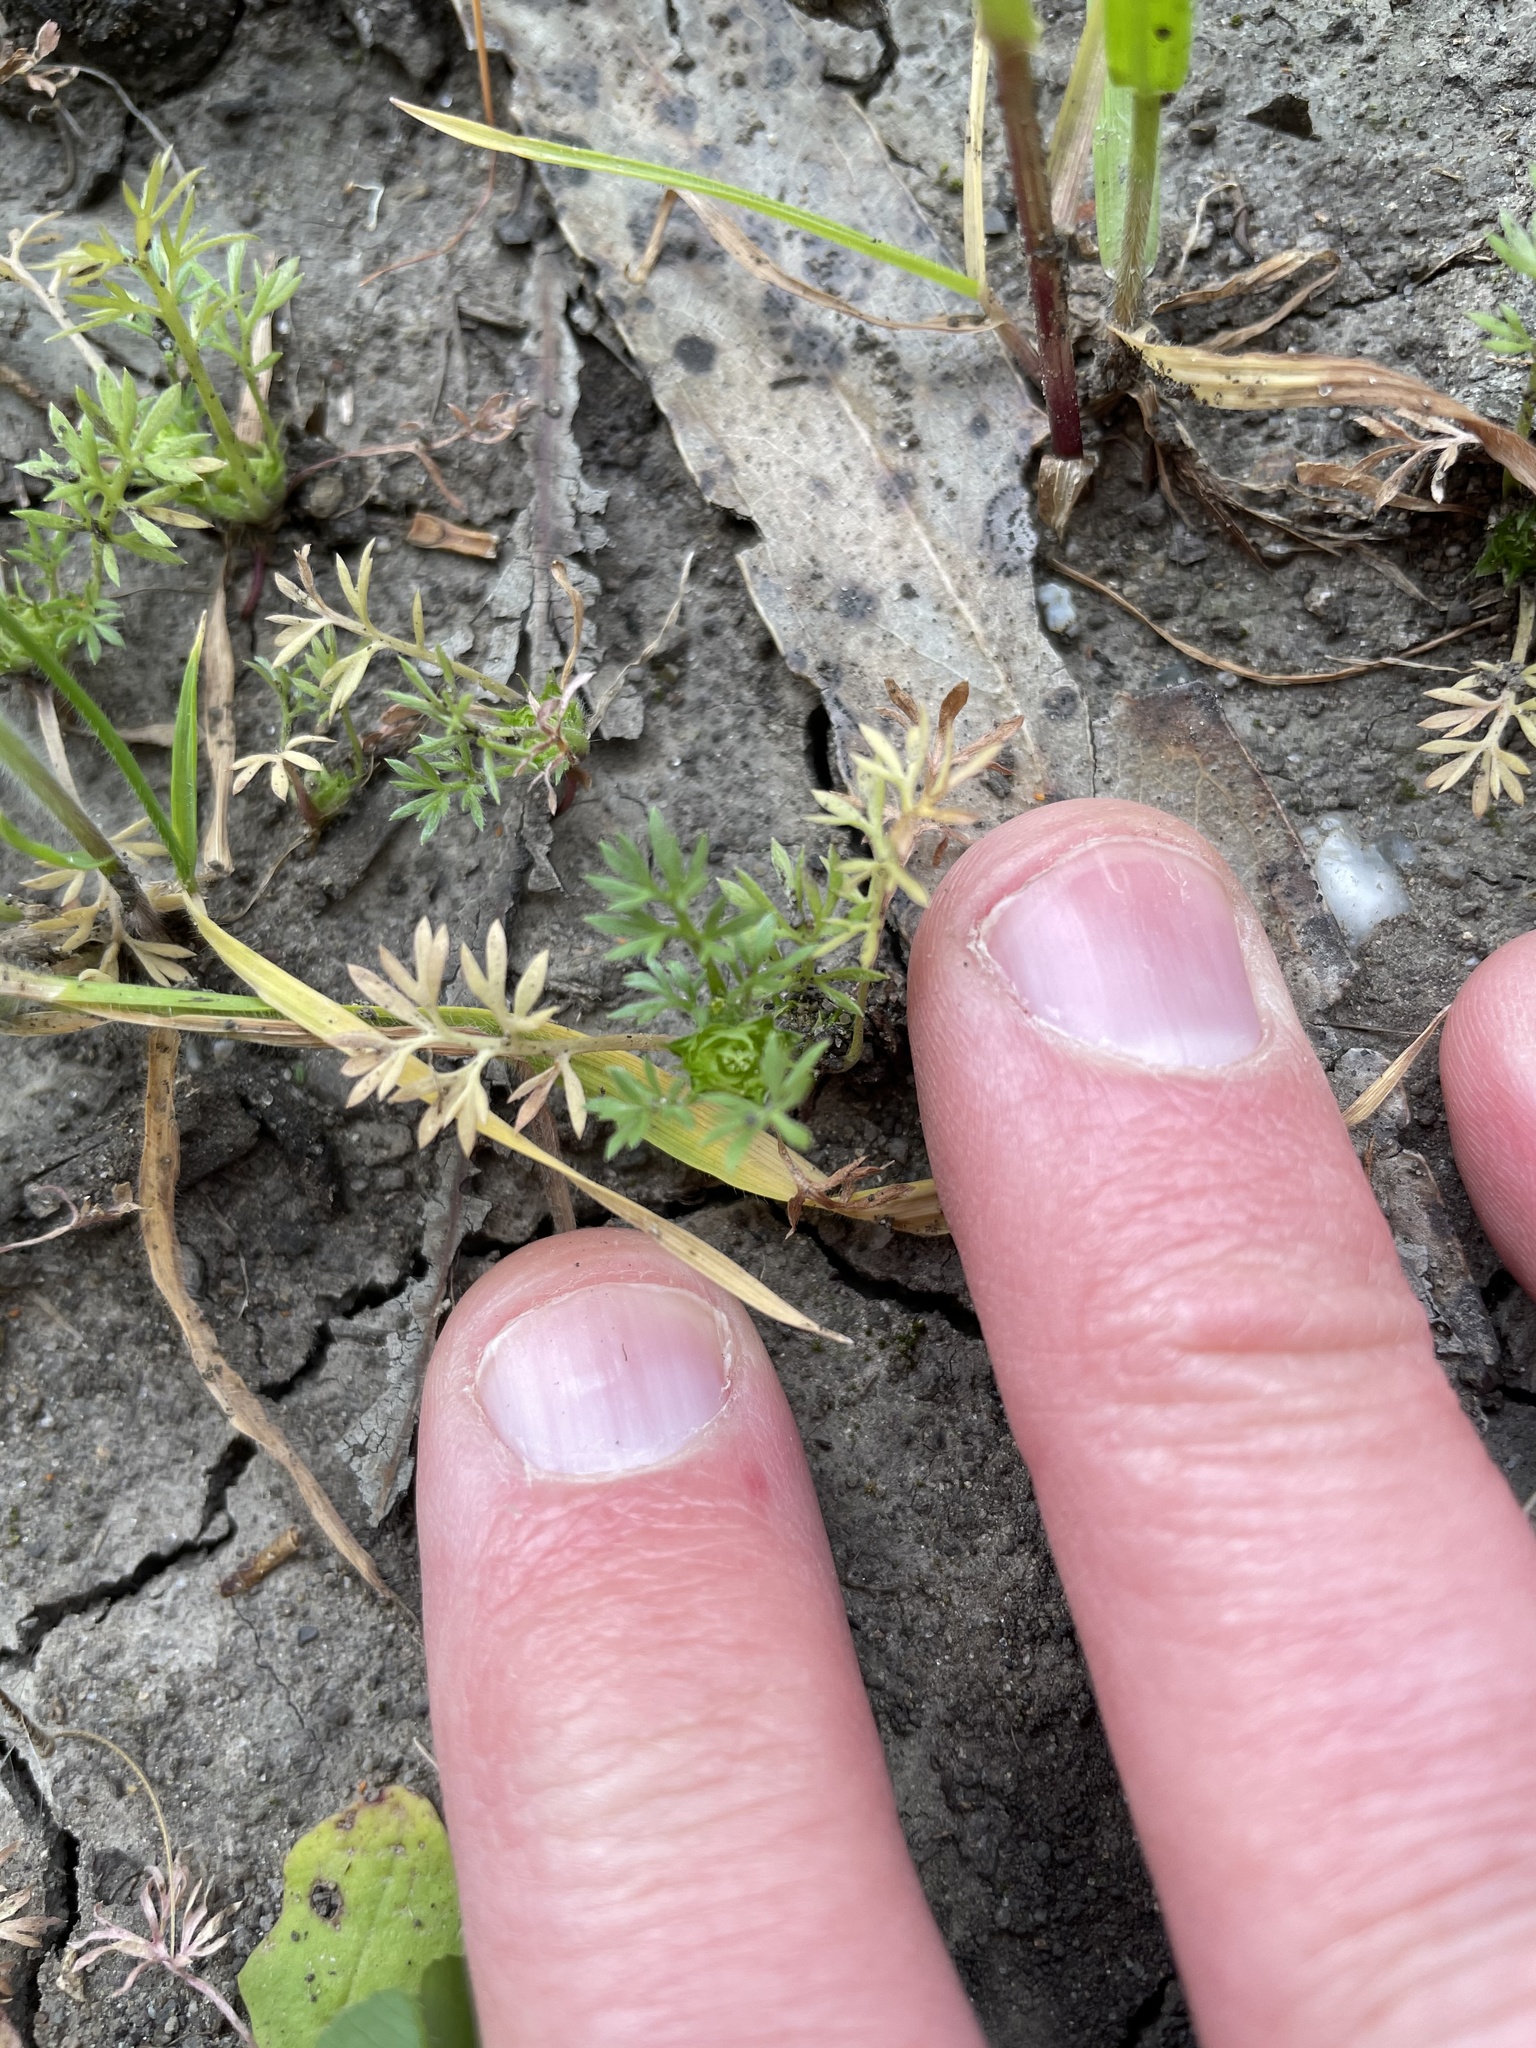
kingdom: Plantae
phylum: Tracheophyta
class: Magnoliopsida
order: Asterales
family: Asteraceae
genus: Soliva
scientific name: Soliva sessilis
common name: Field burrweed
